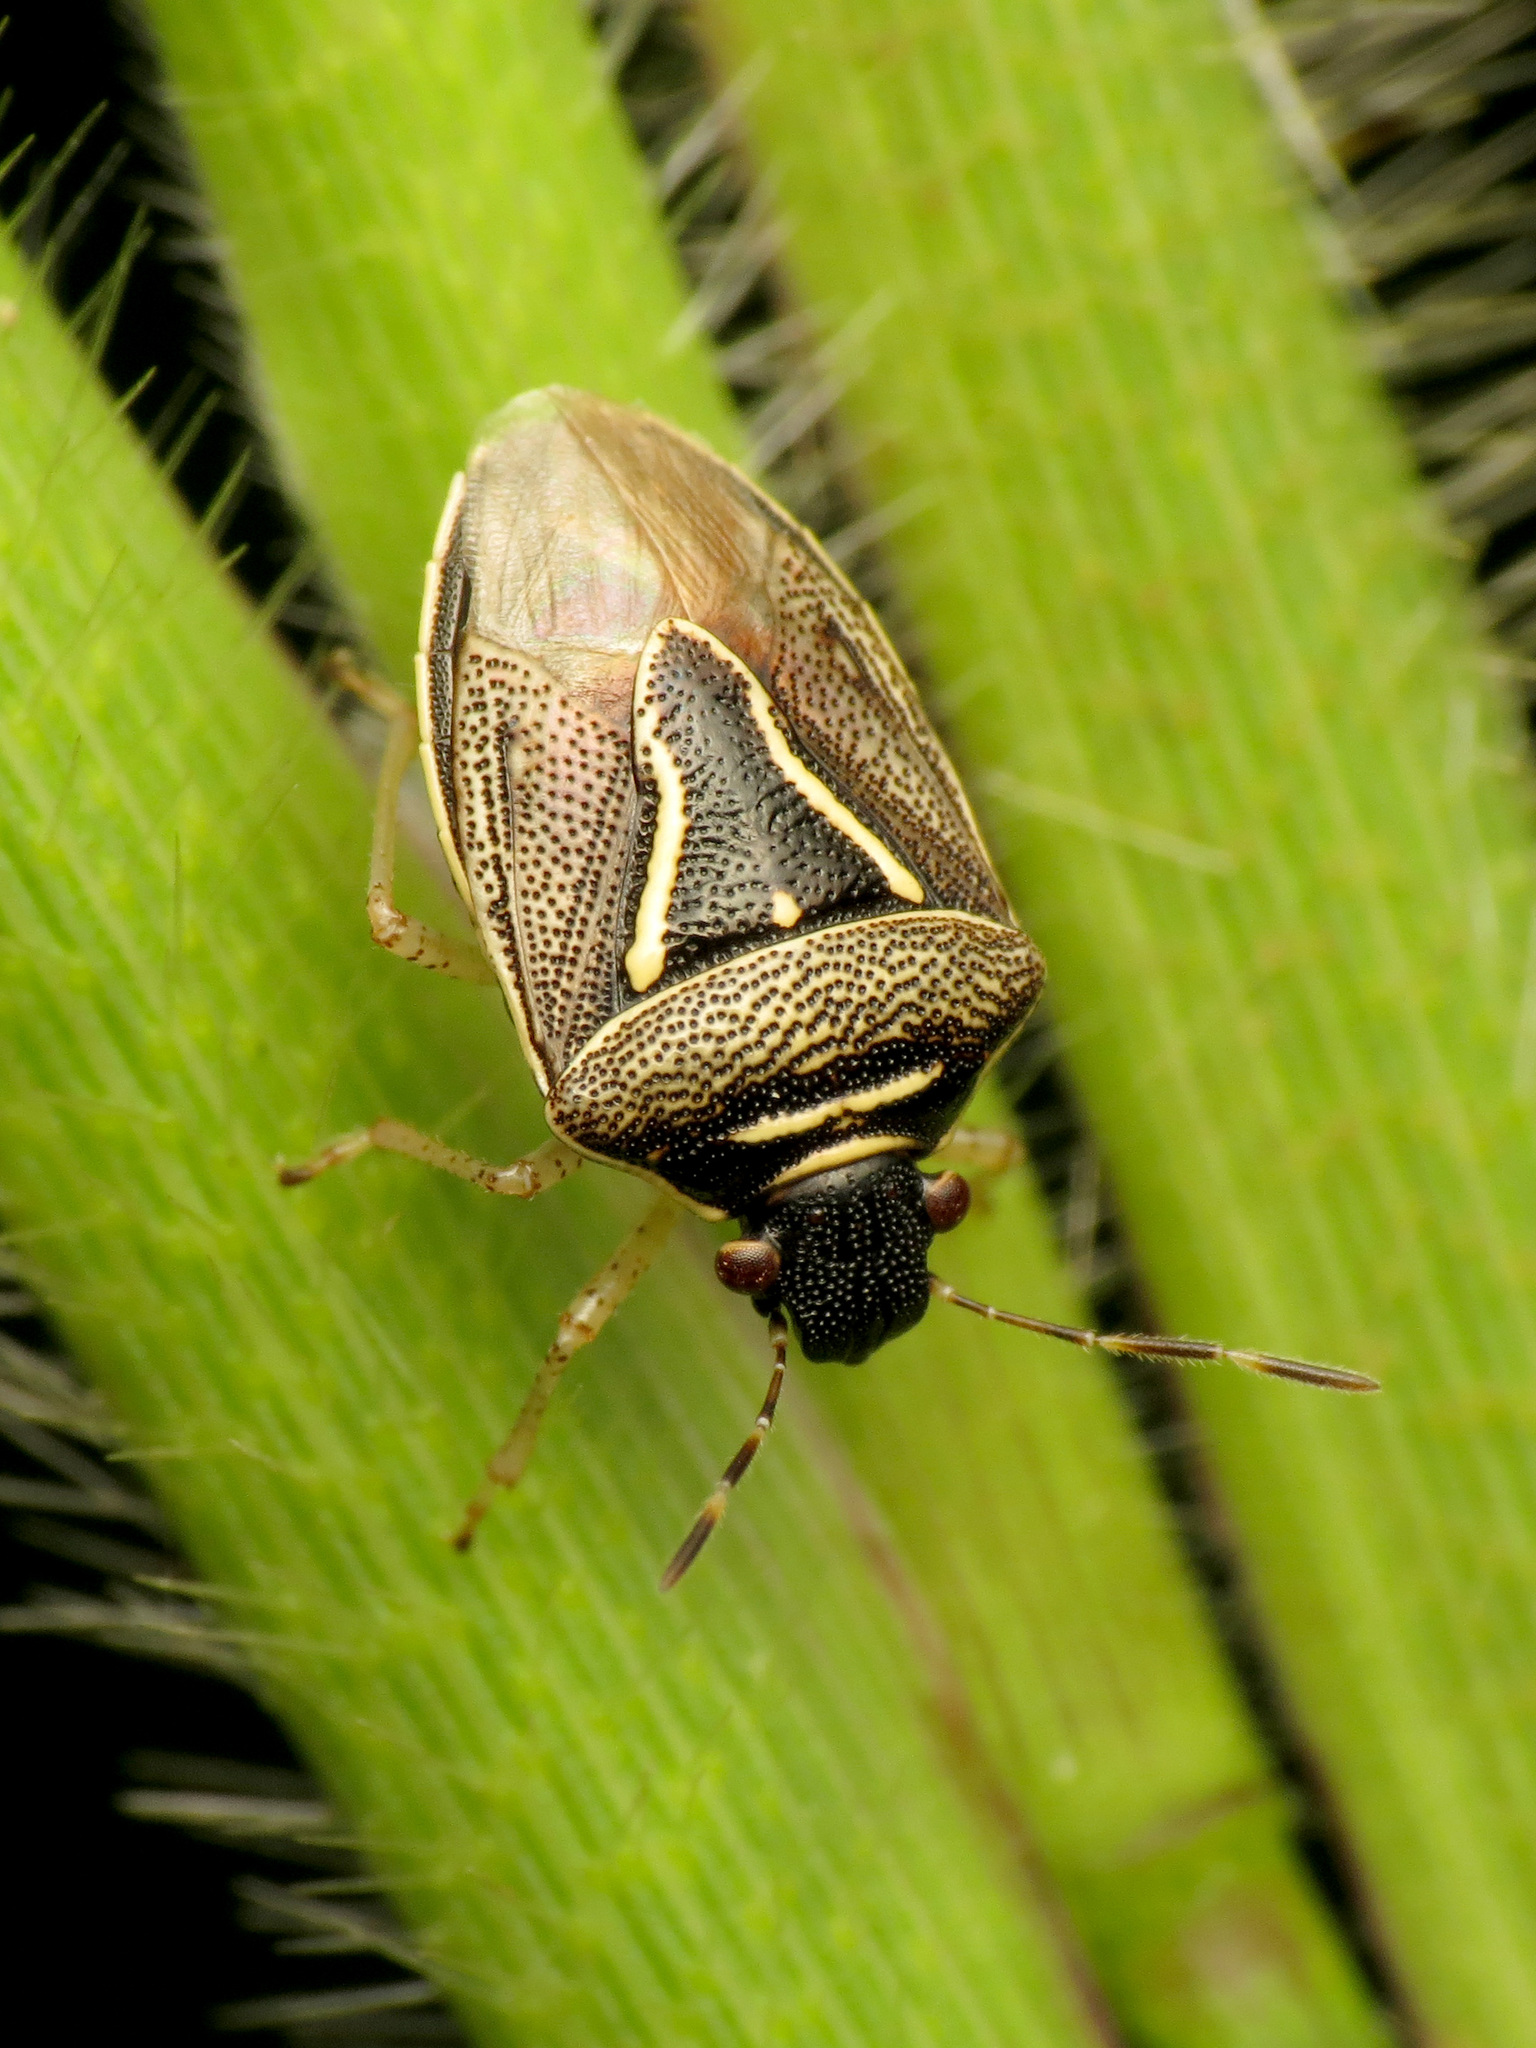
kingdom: Animalia
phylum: Arthropoda
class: Insecta
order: Hemiptera
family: Pentatomidae
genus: Mormidea
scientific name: Mormidea lugens
